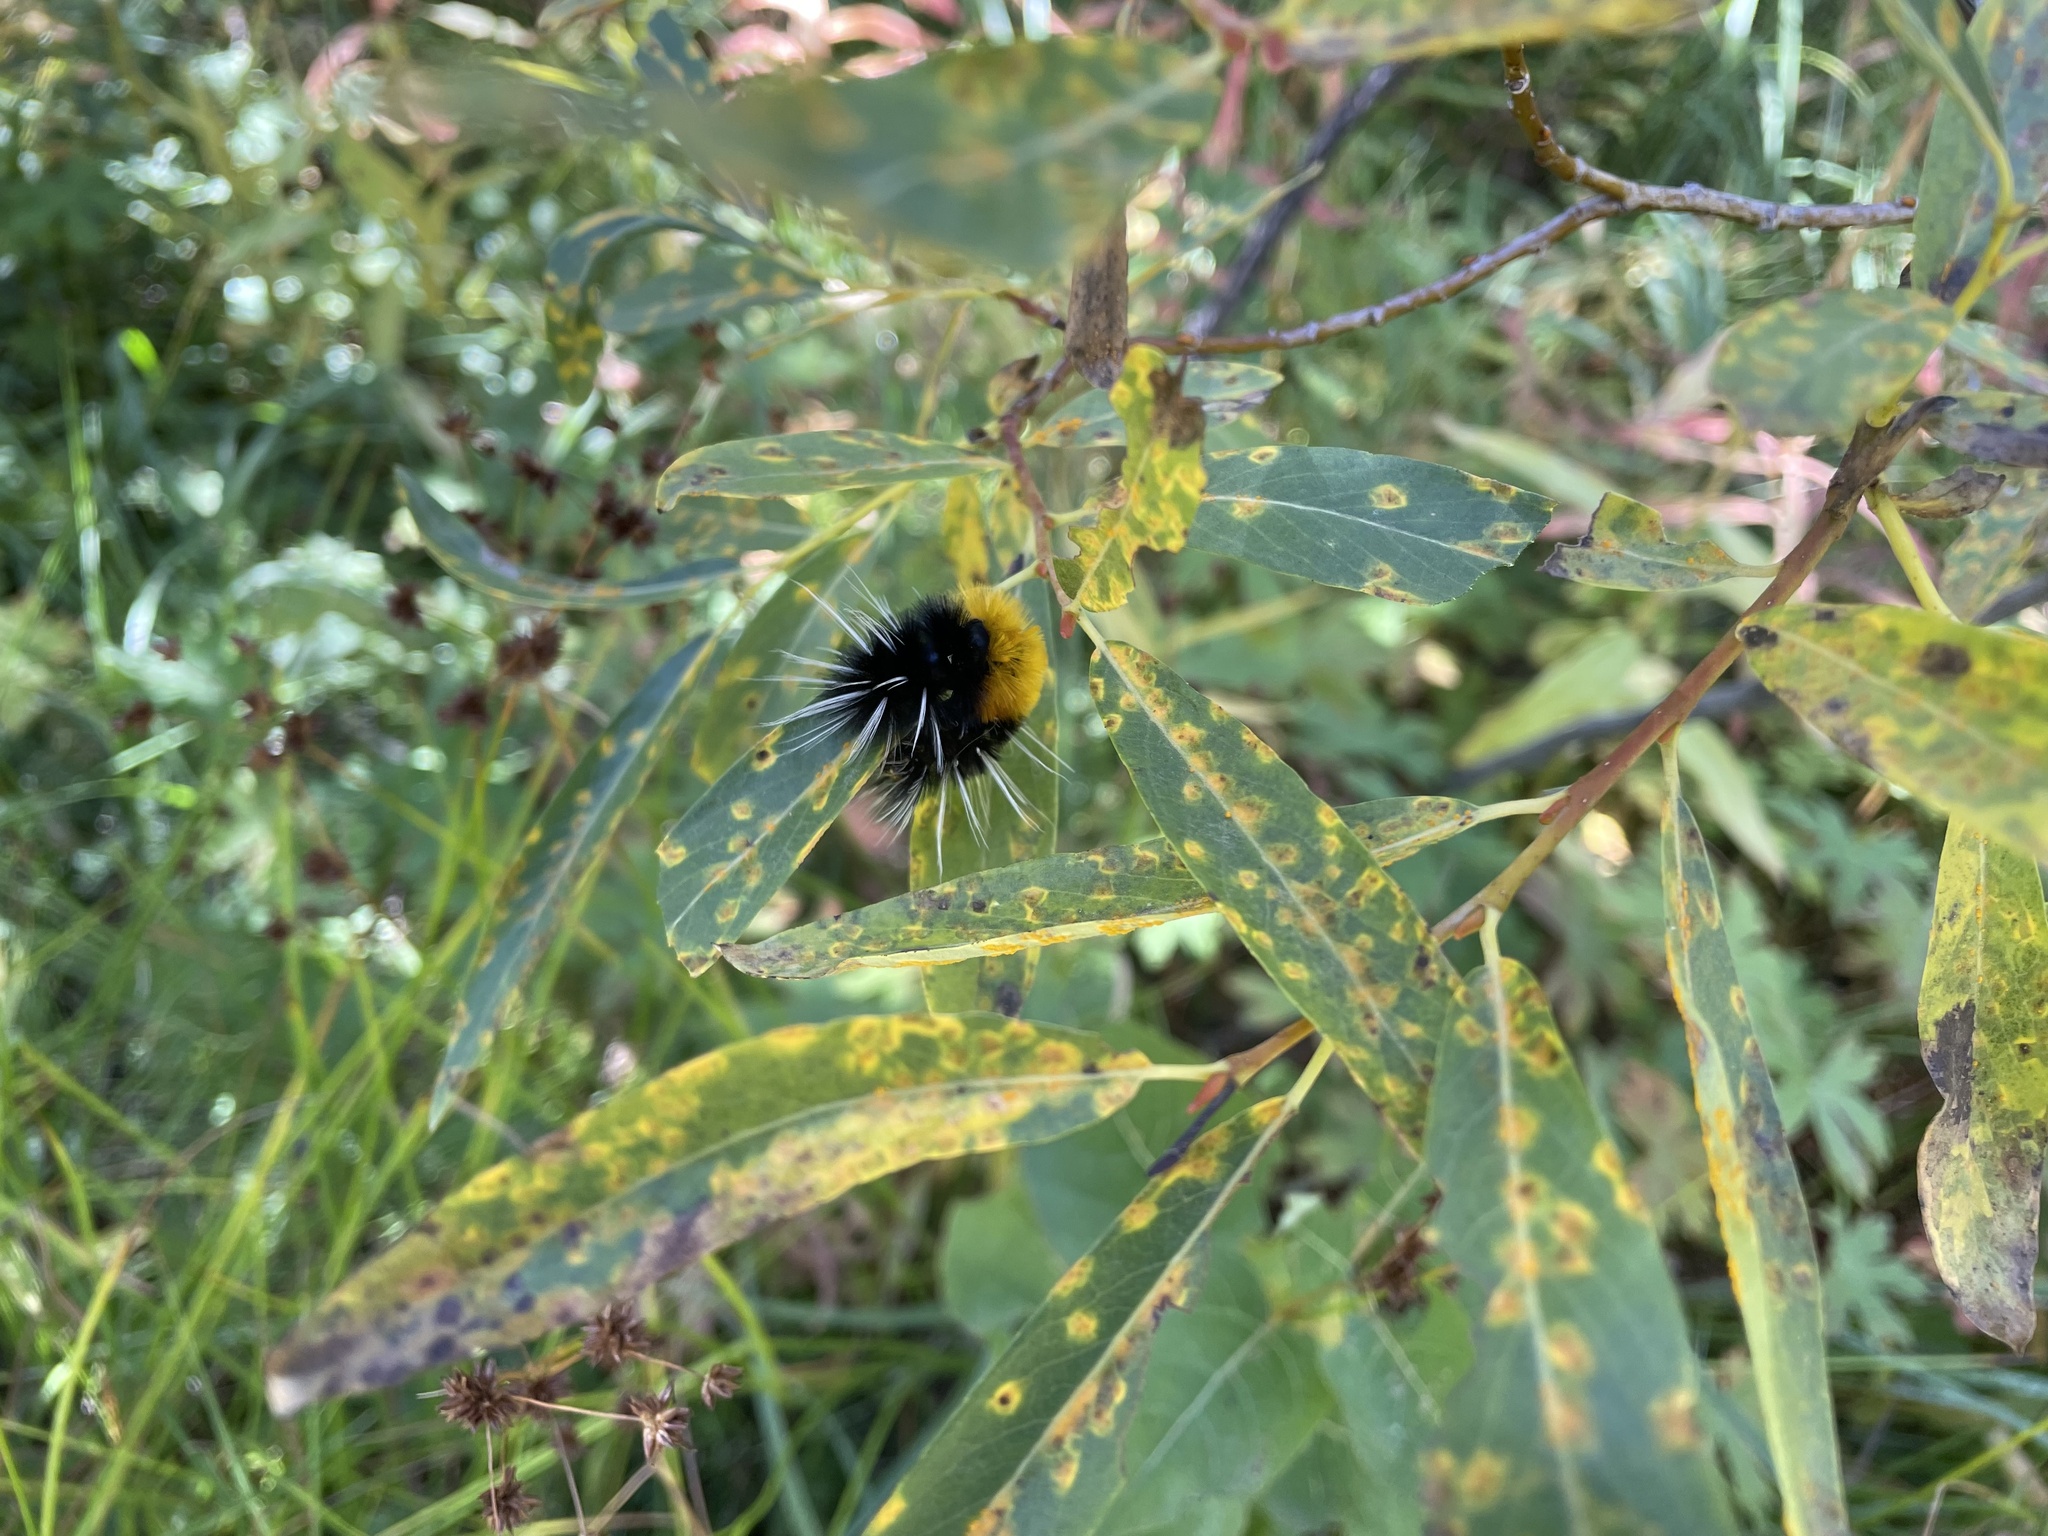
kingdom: Animalia
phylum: Arthropoda
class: Insecta
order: Lepidoptera
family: Erebidae
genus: Lophocampa
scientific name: Lophocampa maculata
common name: Spotted tussock moth
